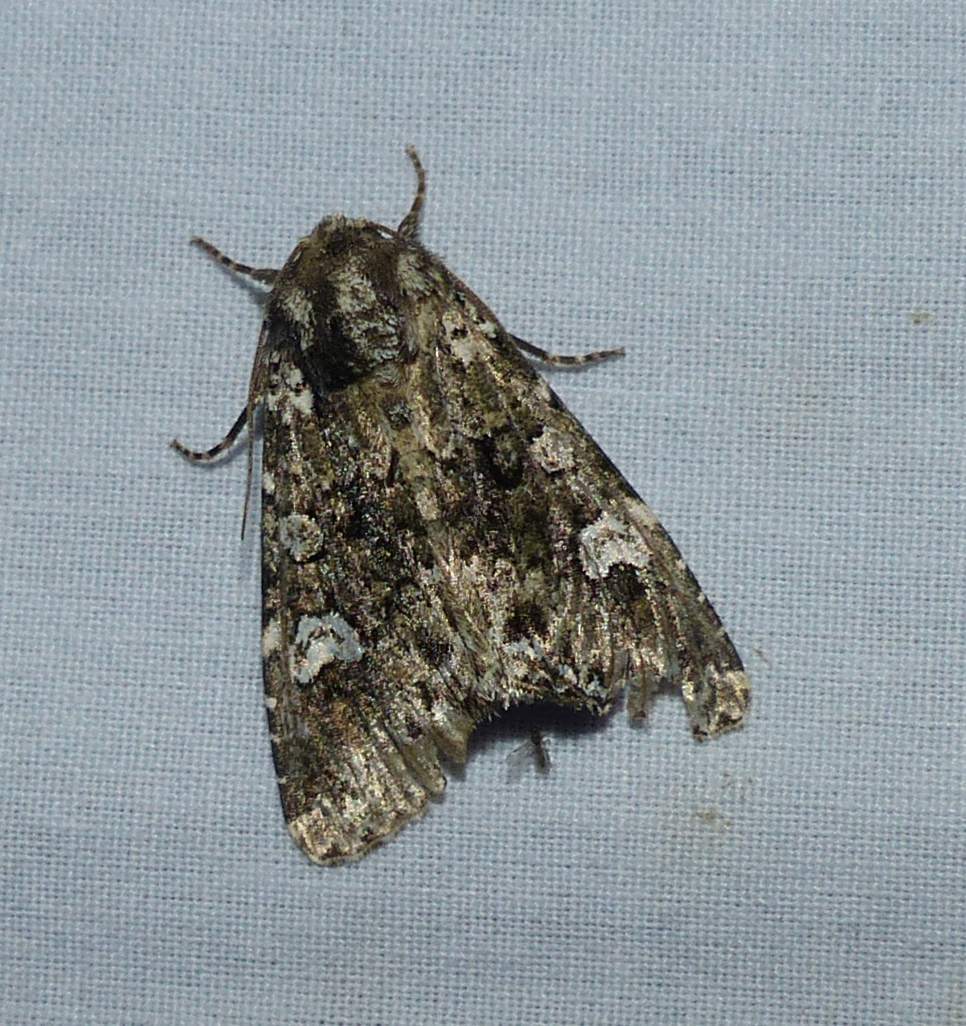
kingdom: Animalia
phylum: Arthropoda
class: Insecta
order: Lepidoptera
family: Noctuidae
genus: Melanchra
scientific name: Melanchra adjuncta
